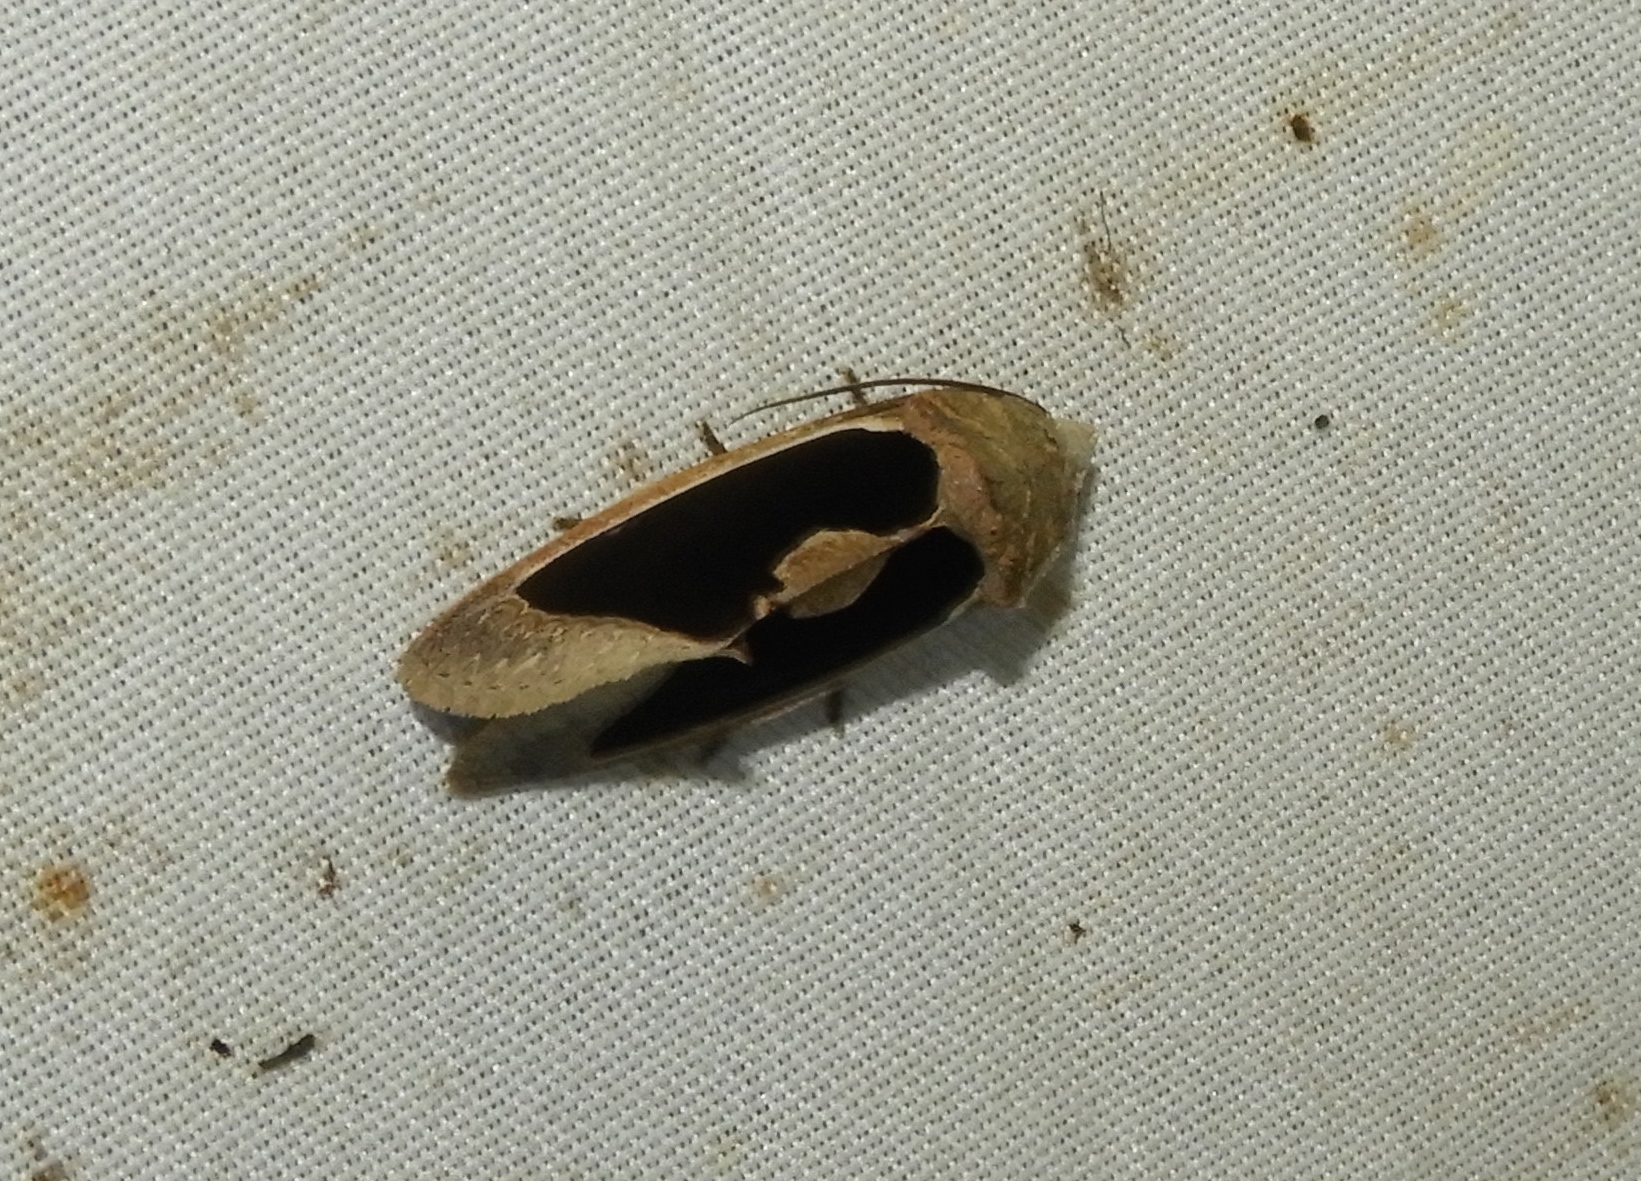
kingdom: Animalia
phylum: Arthropoda
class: Insecta
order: Lepidoptera
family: Erebidae
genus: Gonodonta
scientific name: Gonodonta sinaldus
